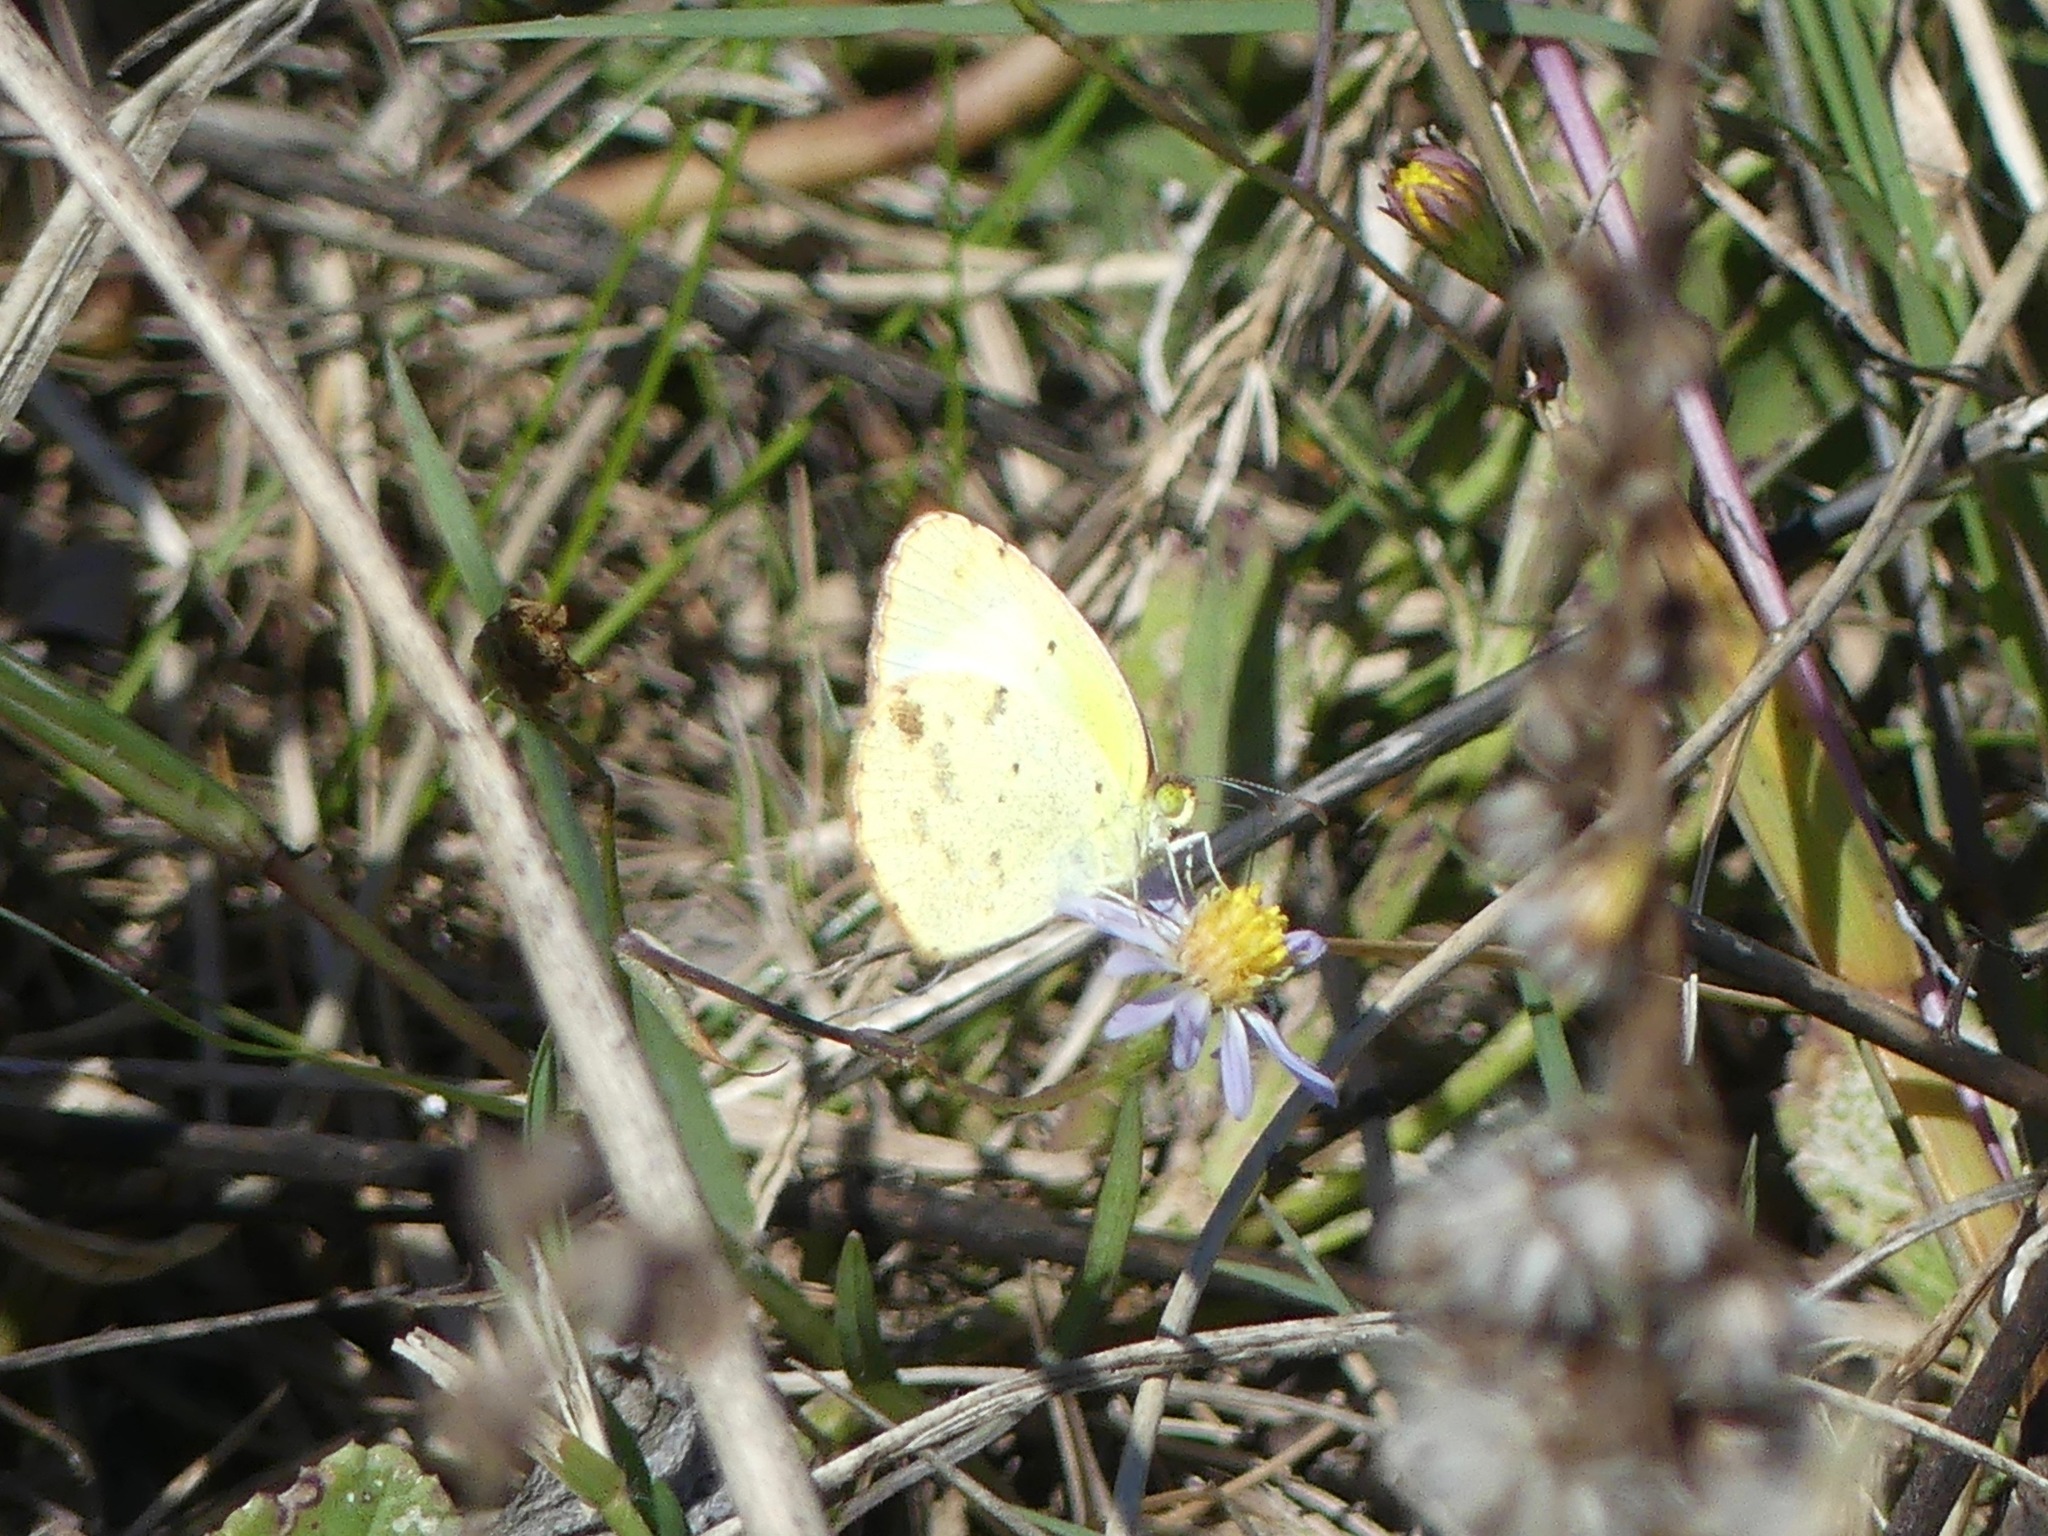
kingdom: Animalia
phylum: Arthropoda
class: Insecta
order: Lepidoptera
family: Pieridae
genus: Pyrisitia
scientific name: Pyrisitia lisa
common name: Little yellow
